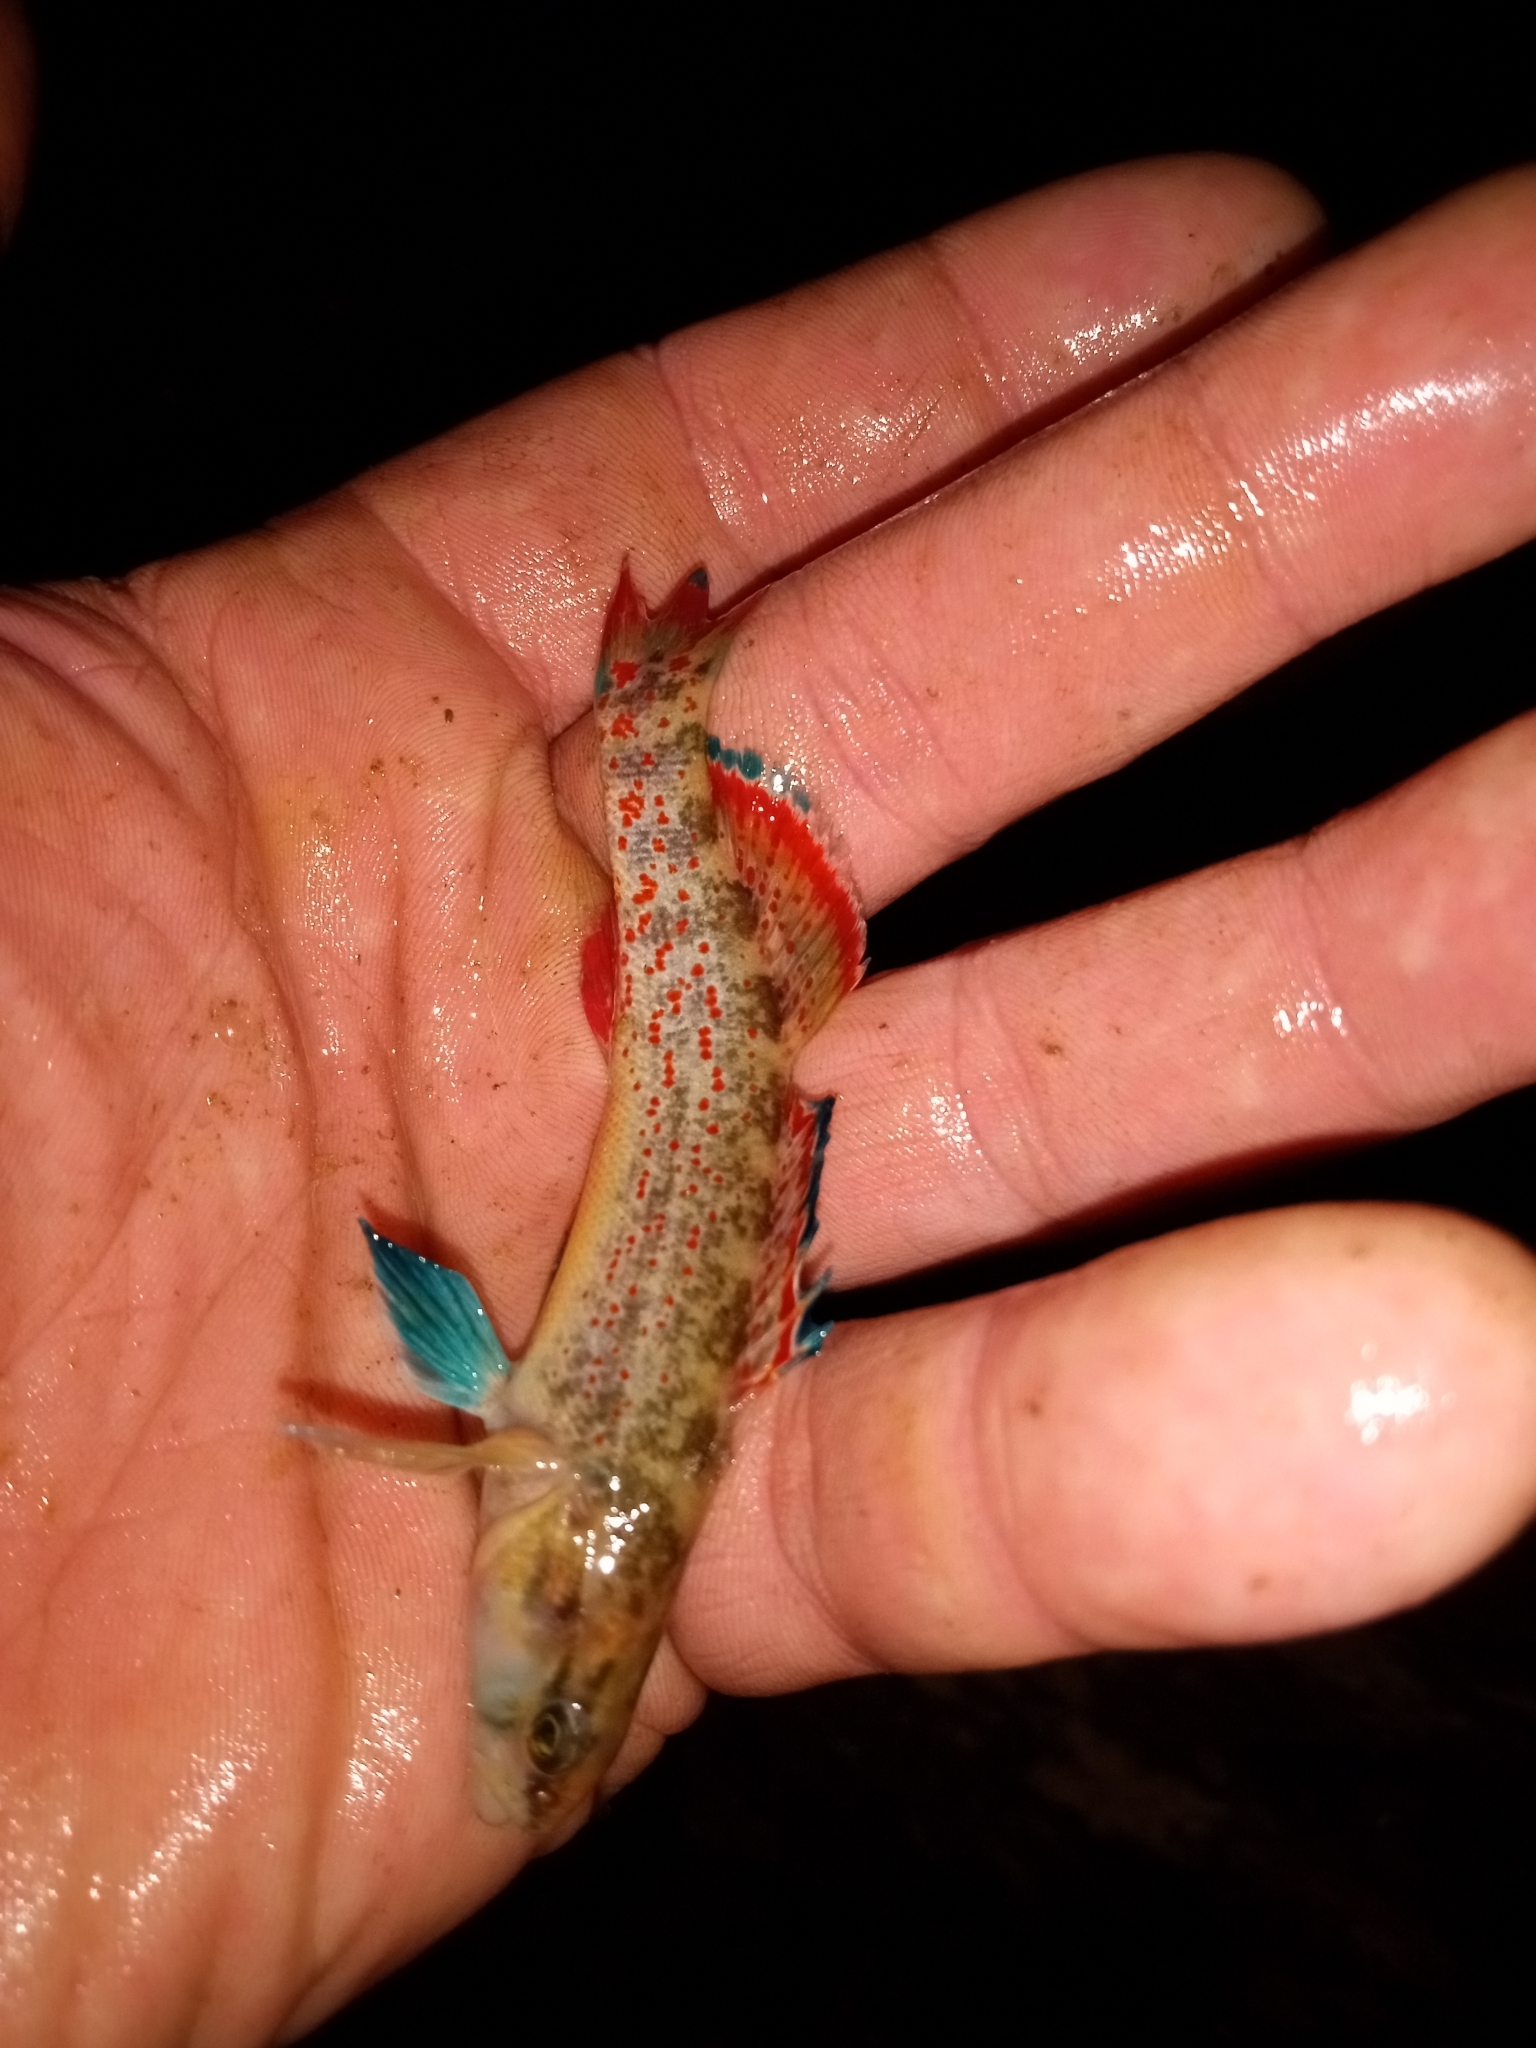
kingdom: Animalia
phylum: Chordata
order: Perciformes
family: Percidae
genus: Etheostoma
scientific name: Etheostoma artesiae
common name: Redspot darter
